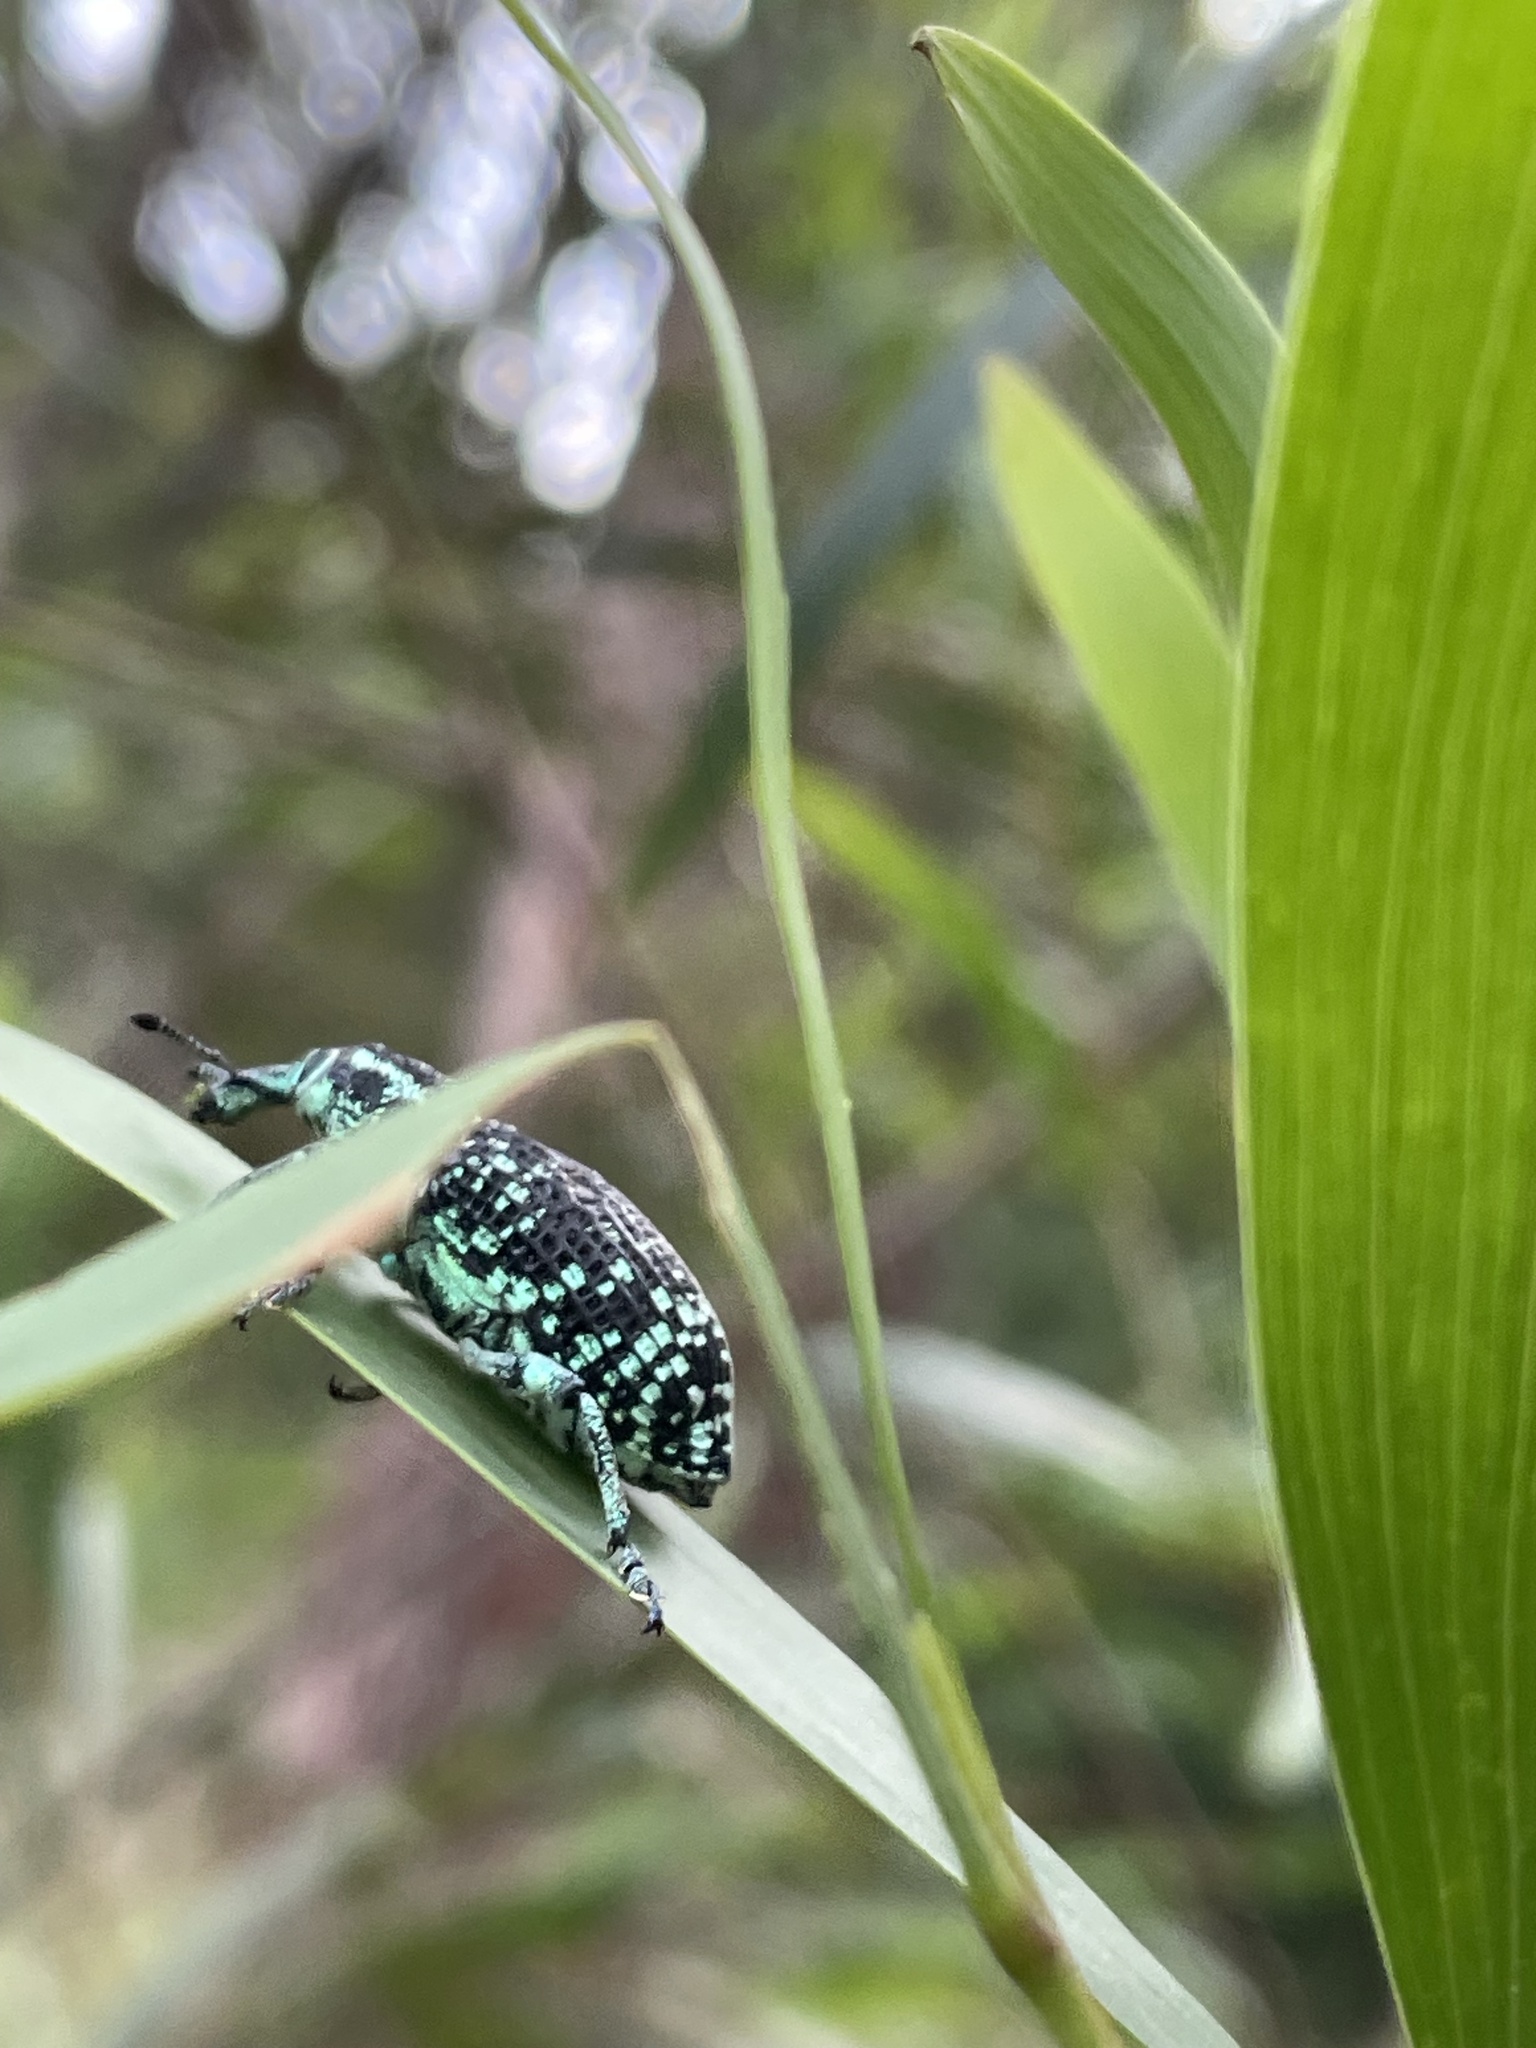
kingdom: Animalia
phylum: Arthropoda
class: Insecta
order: Coleoptera
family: Curculionidae
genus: Chrysolopus
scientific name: Chrysolopus spectabilis
